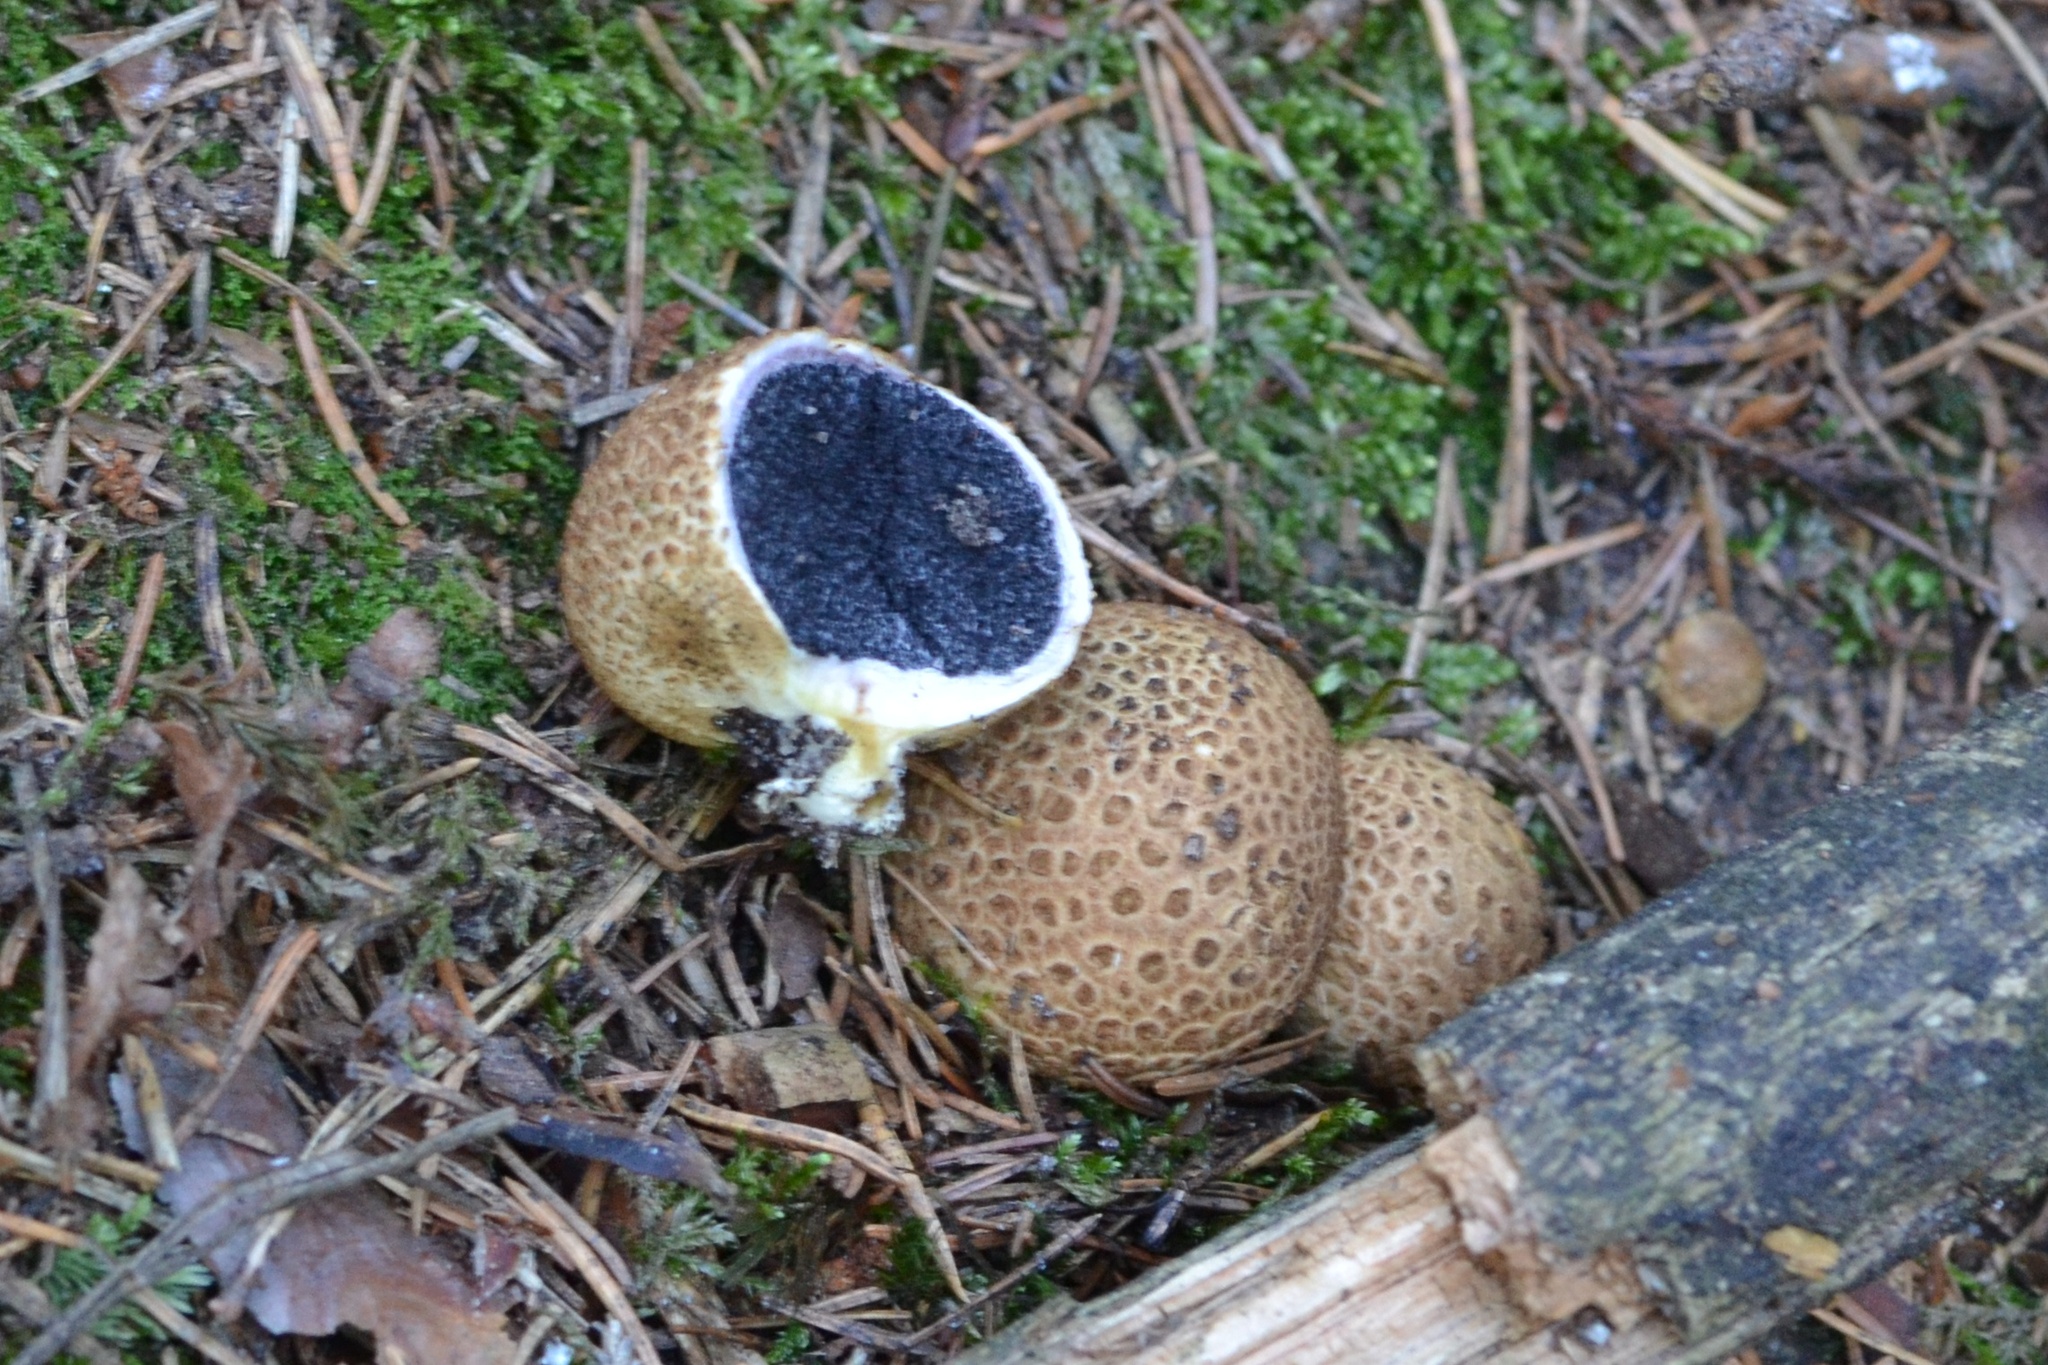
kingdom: Fungi
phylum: Basidiomycota
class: Agaricomycetes
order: Boletales
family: Sclerodermataceae
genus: Scleroderma
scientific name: Scleroderma citrinum
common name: Common earthball
